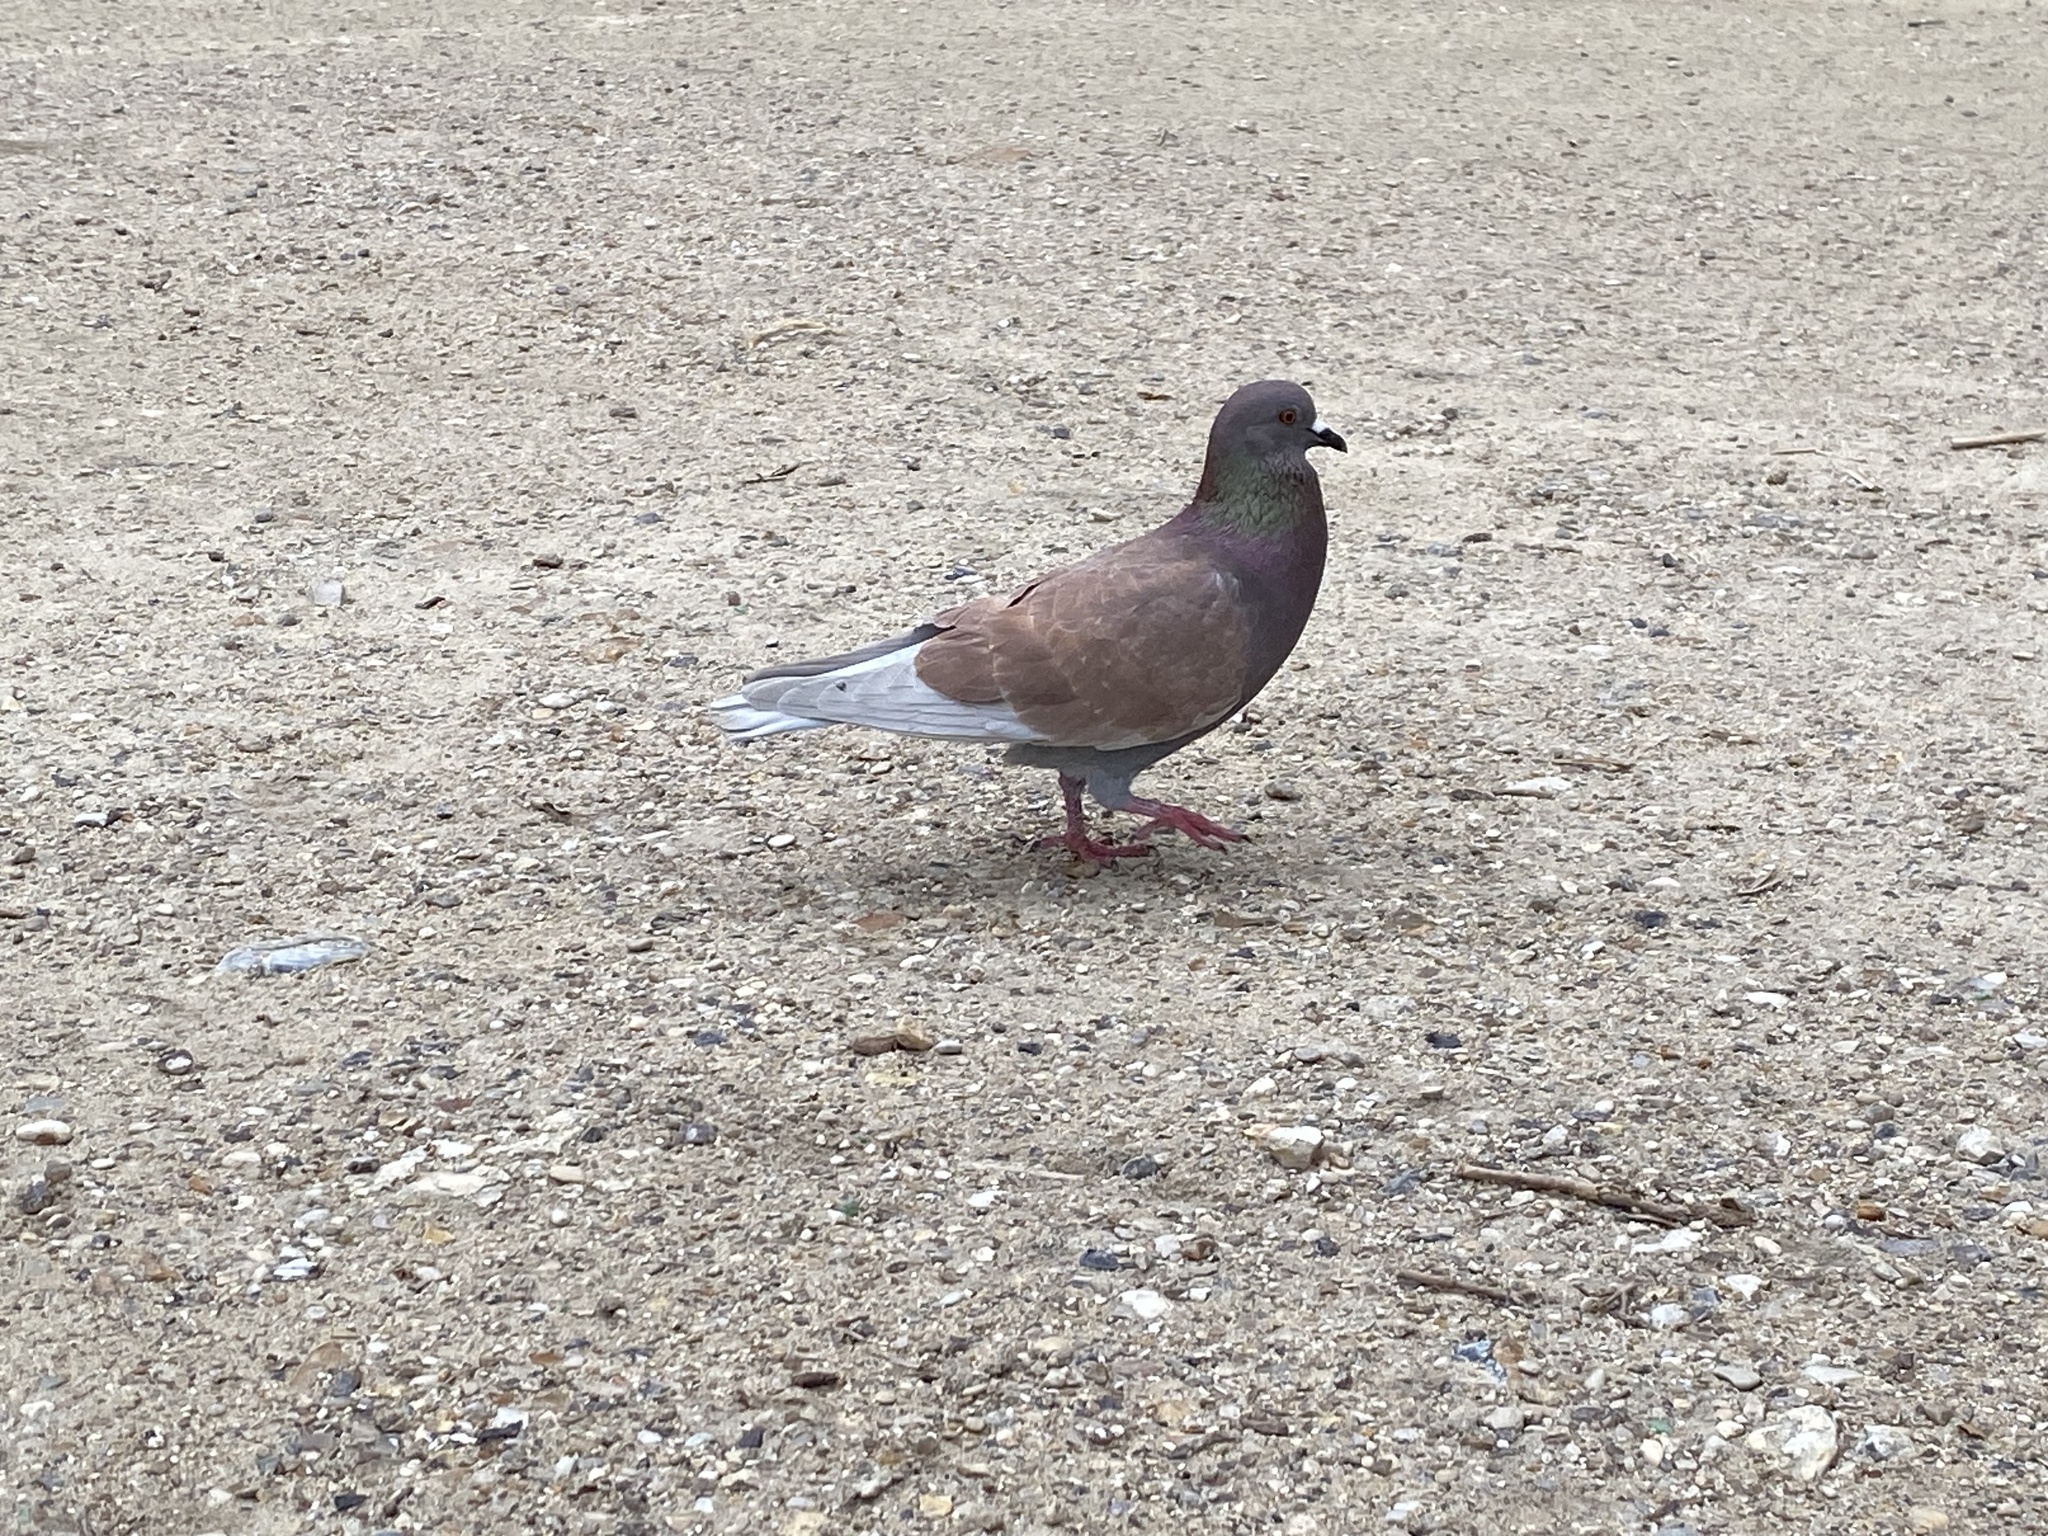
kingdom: Animalia
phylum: Chordata
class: Aves
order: Columbiformes
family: Columbidae
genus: Columba
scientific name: Columba livia
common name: Rock pigeon
